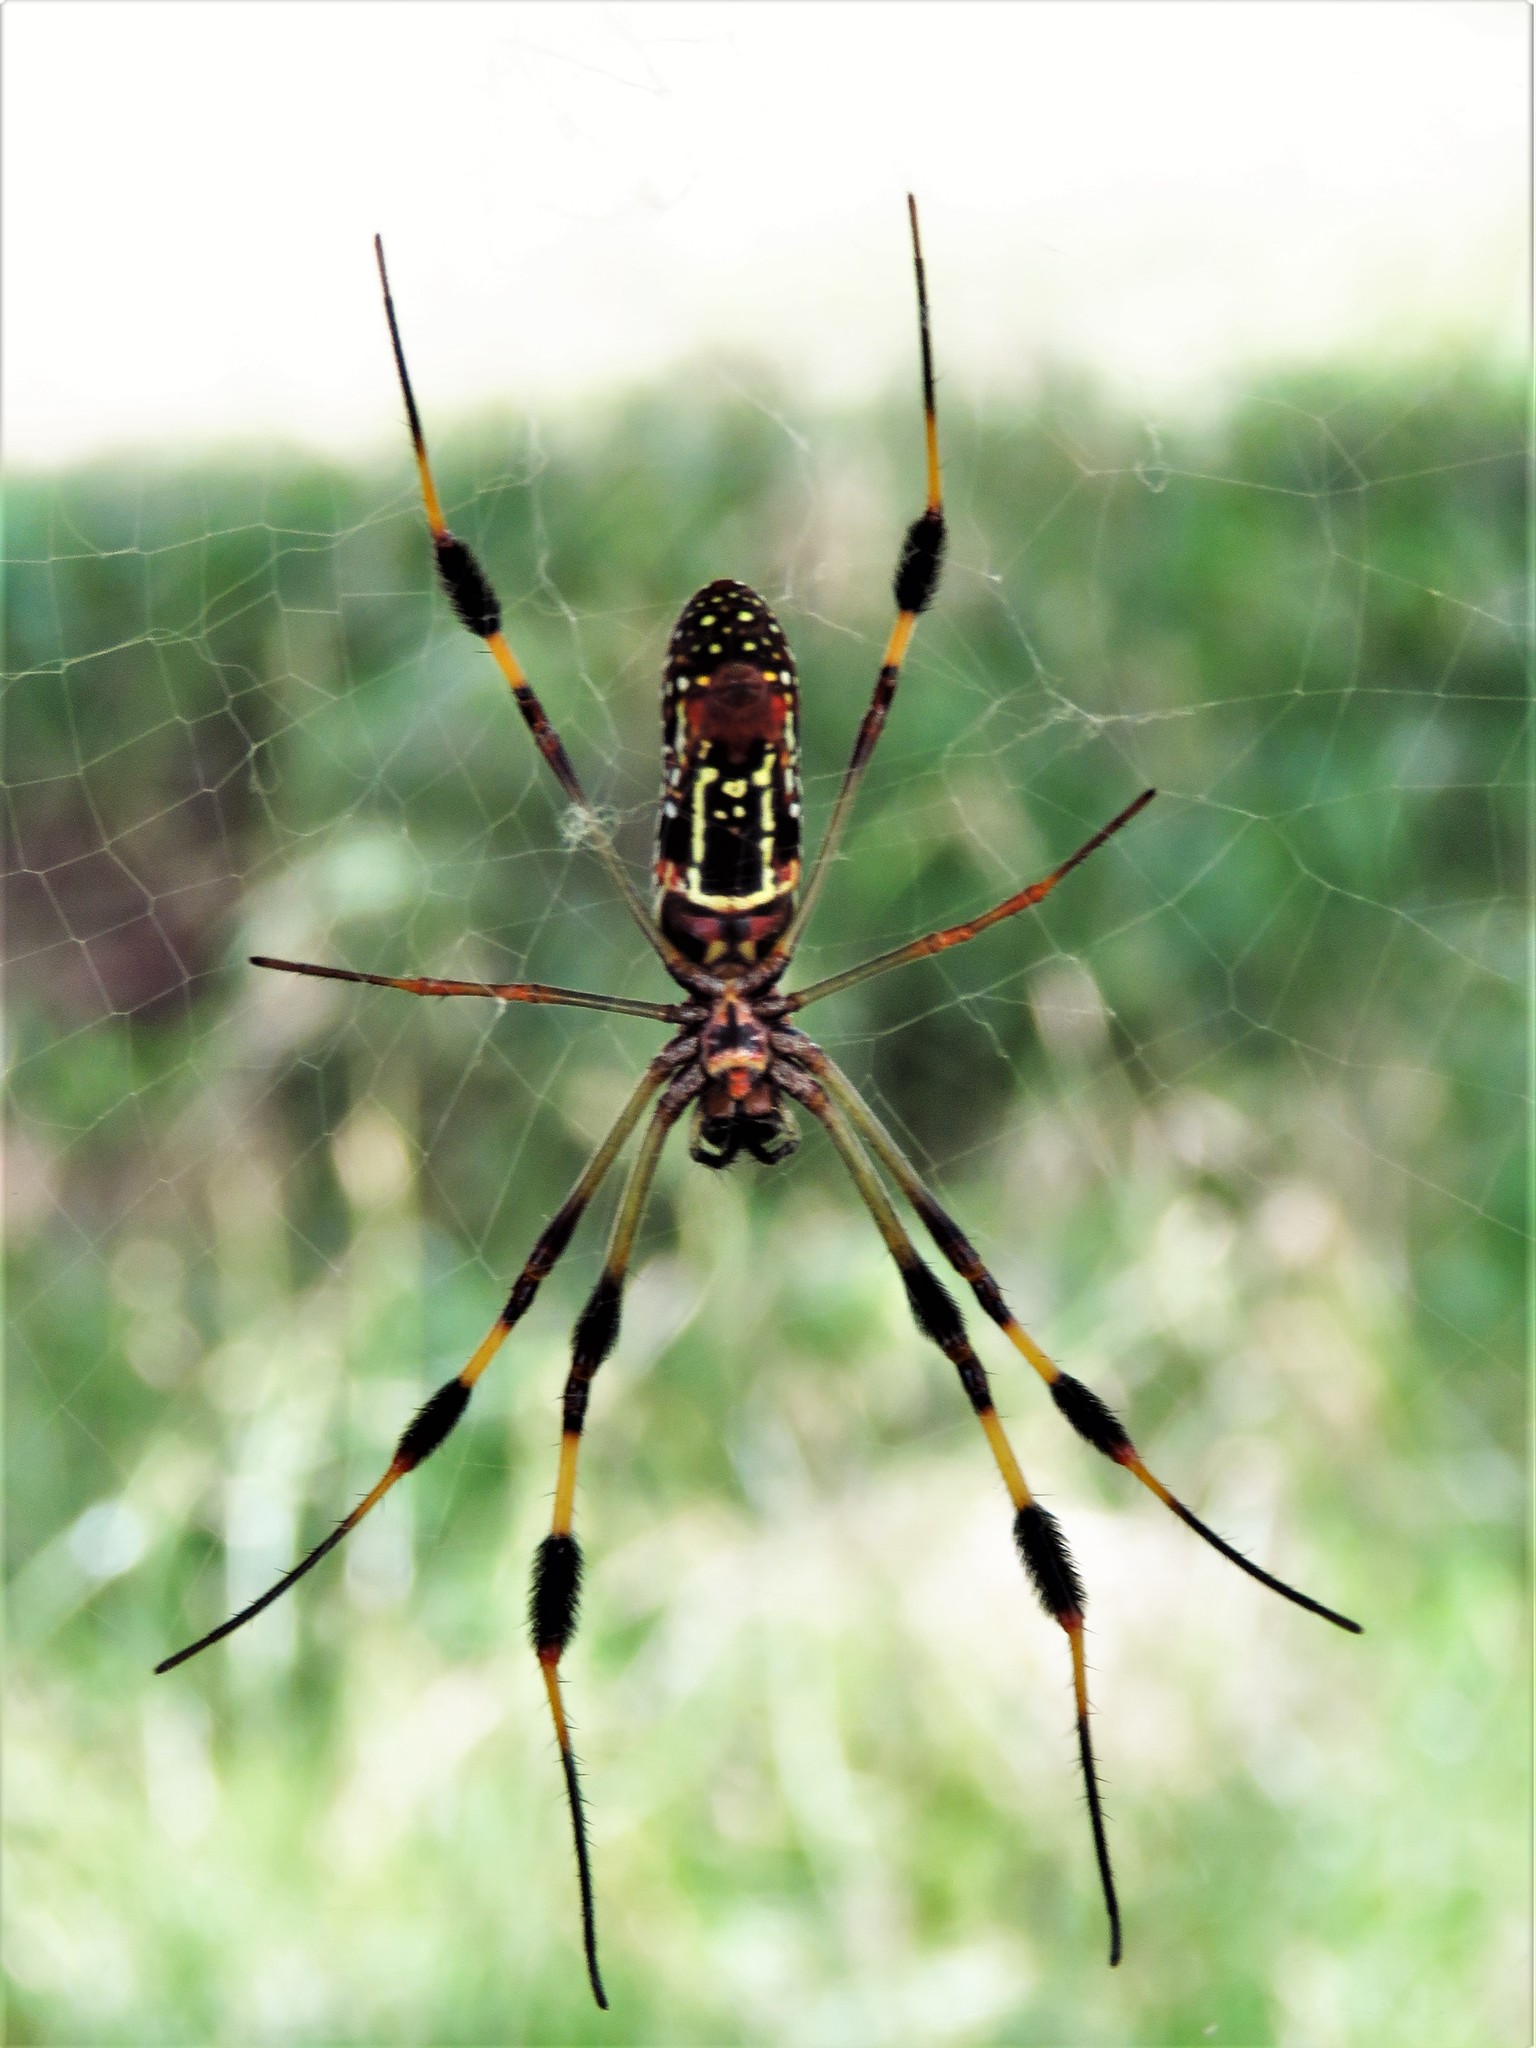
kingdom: Animalia
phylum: Arthropoda
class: Arachnida
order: Araneae
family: Araneidae
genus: Trichonephila
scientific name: Trichonephila clavipes
